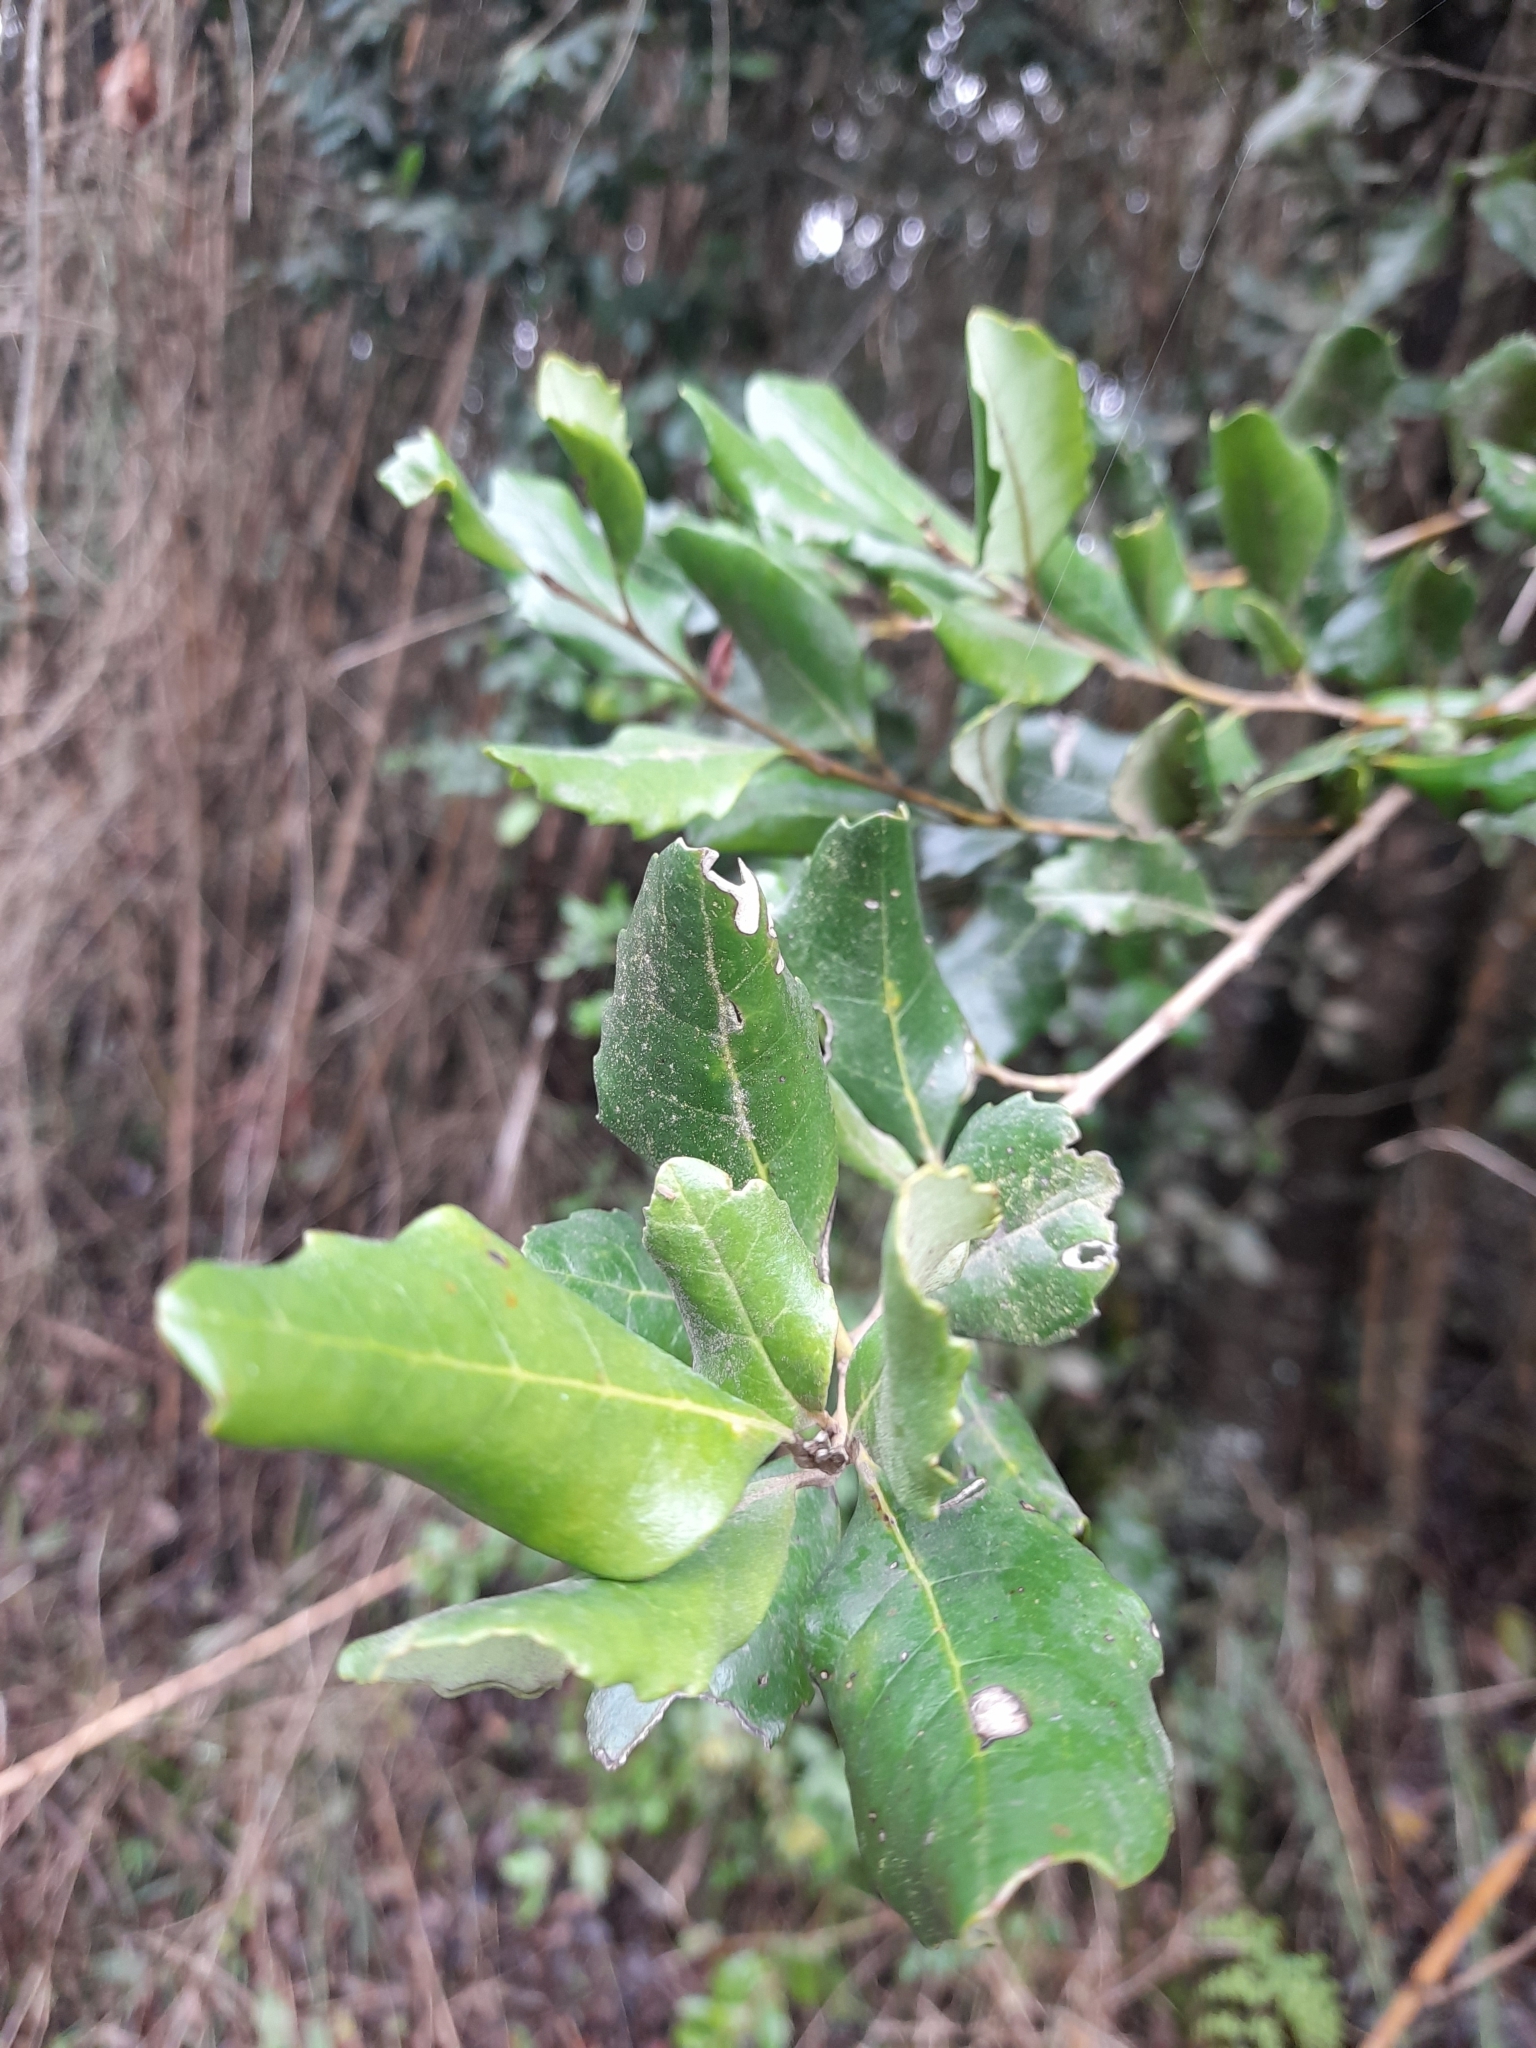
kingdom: Plantae
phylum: Tracheophyta
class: Magnoliopsida
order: Proteales
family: Proteaceae
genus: Lomatia
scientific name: Lomatia dentata
